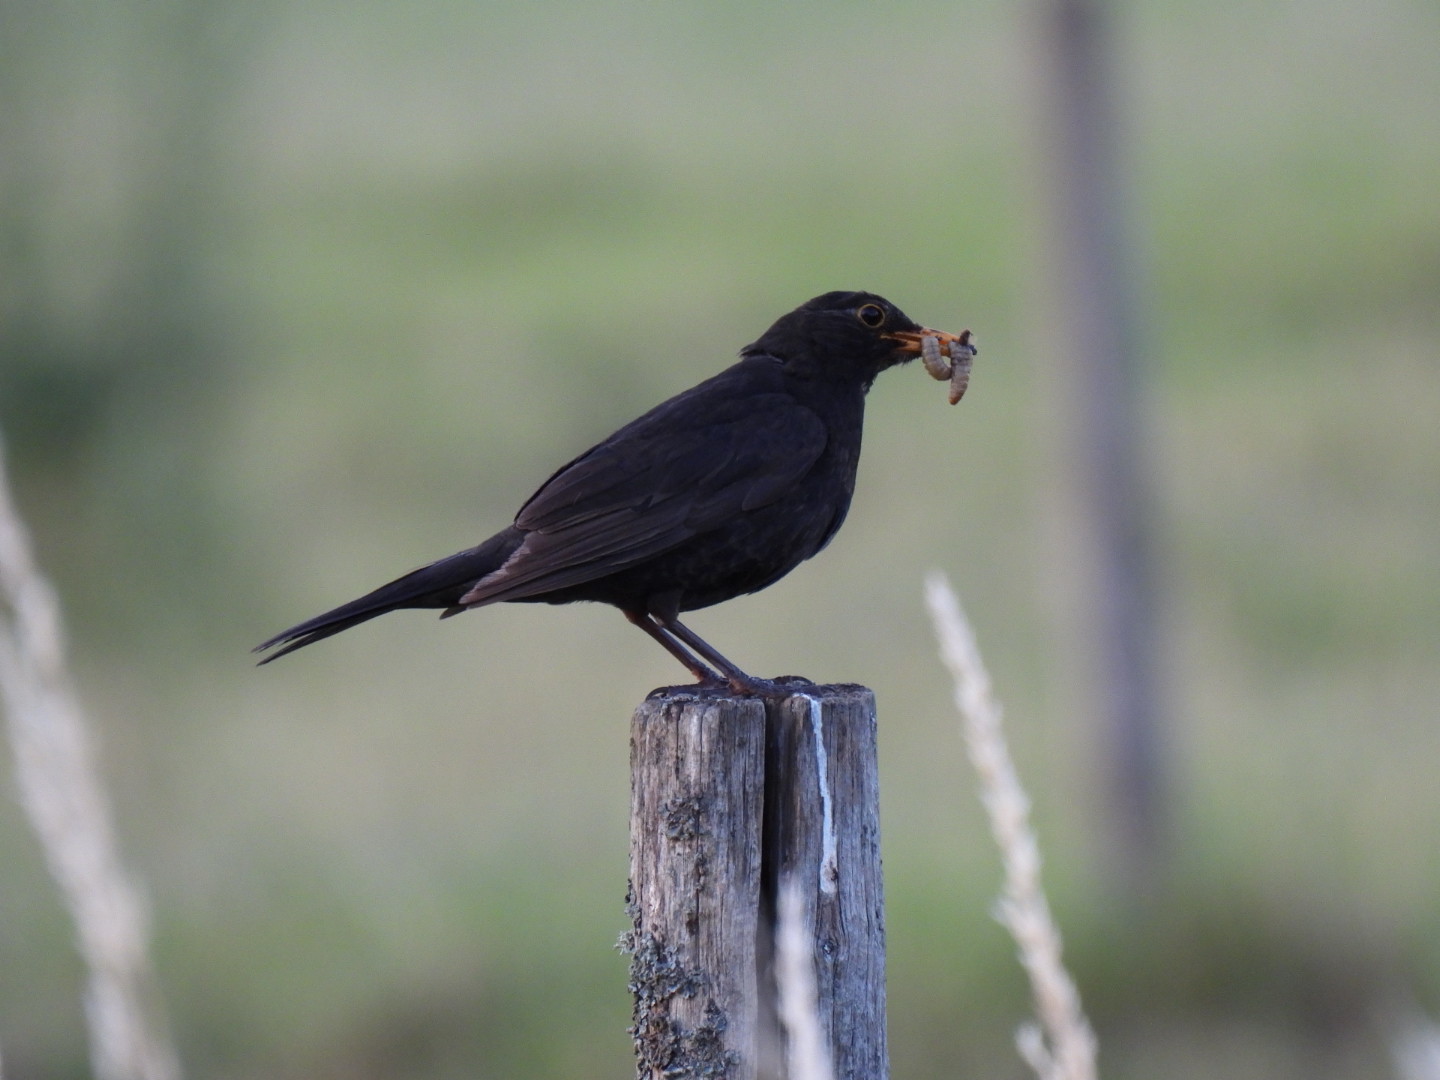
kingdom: Animalia
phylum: Chordata
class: Aves
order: Passeriformes
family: Turdidae
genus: Turdus
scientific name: Turdus merula
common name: Common blackbird
